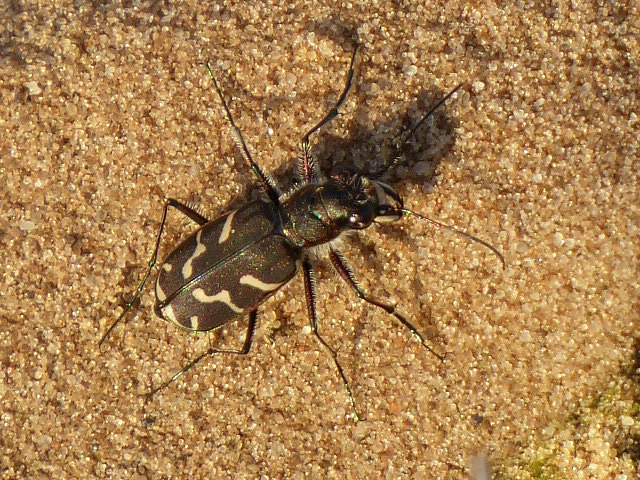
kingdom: Animalia
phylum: Arthropoda
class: Insecta
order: Coleoptera
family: Carabidae
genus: Cicindela
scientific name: Cicindela tranquebarica
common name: Oblique-lined tiger beetle
